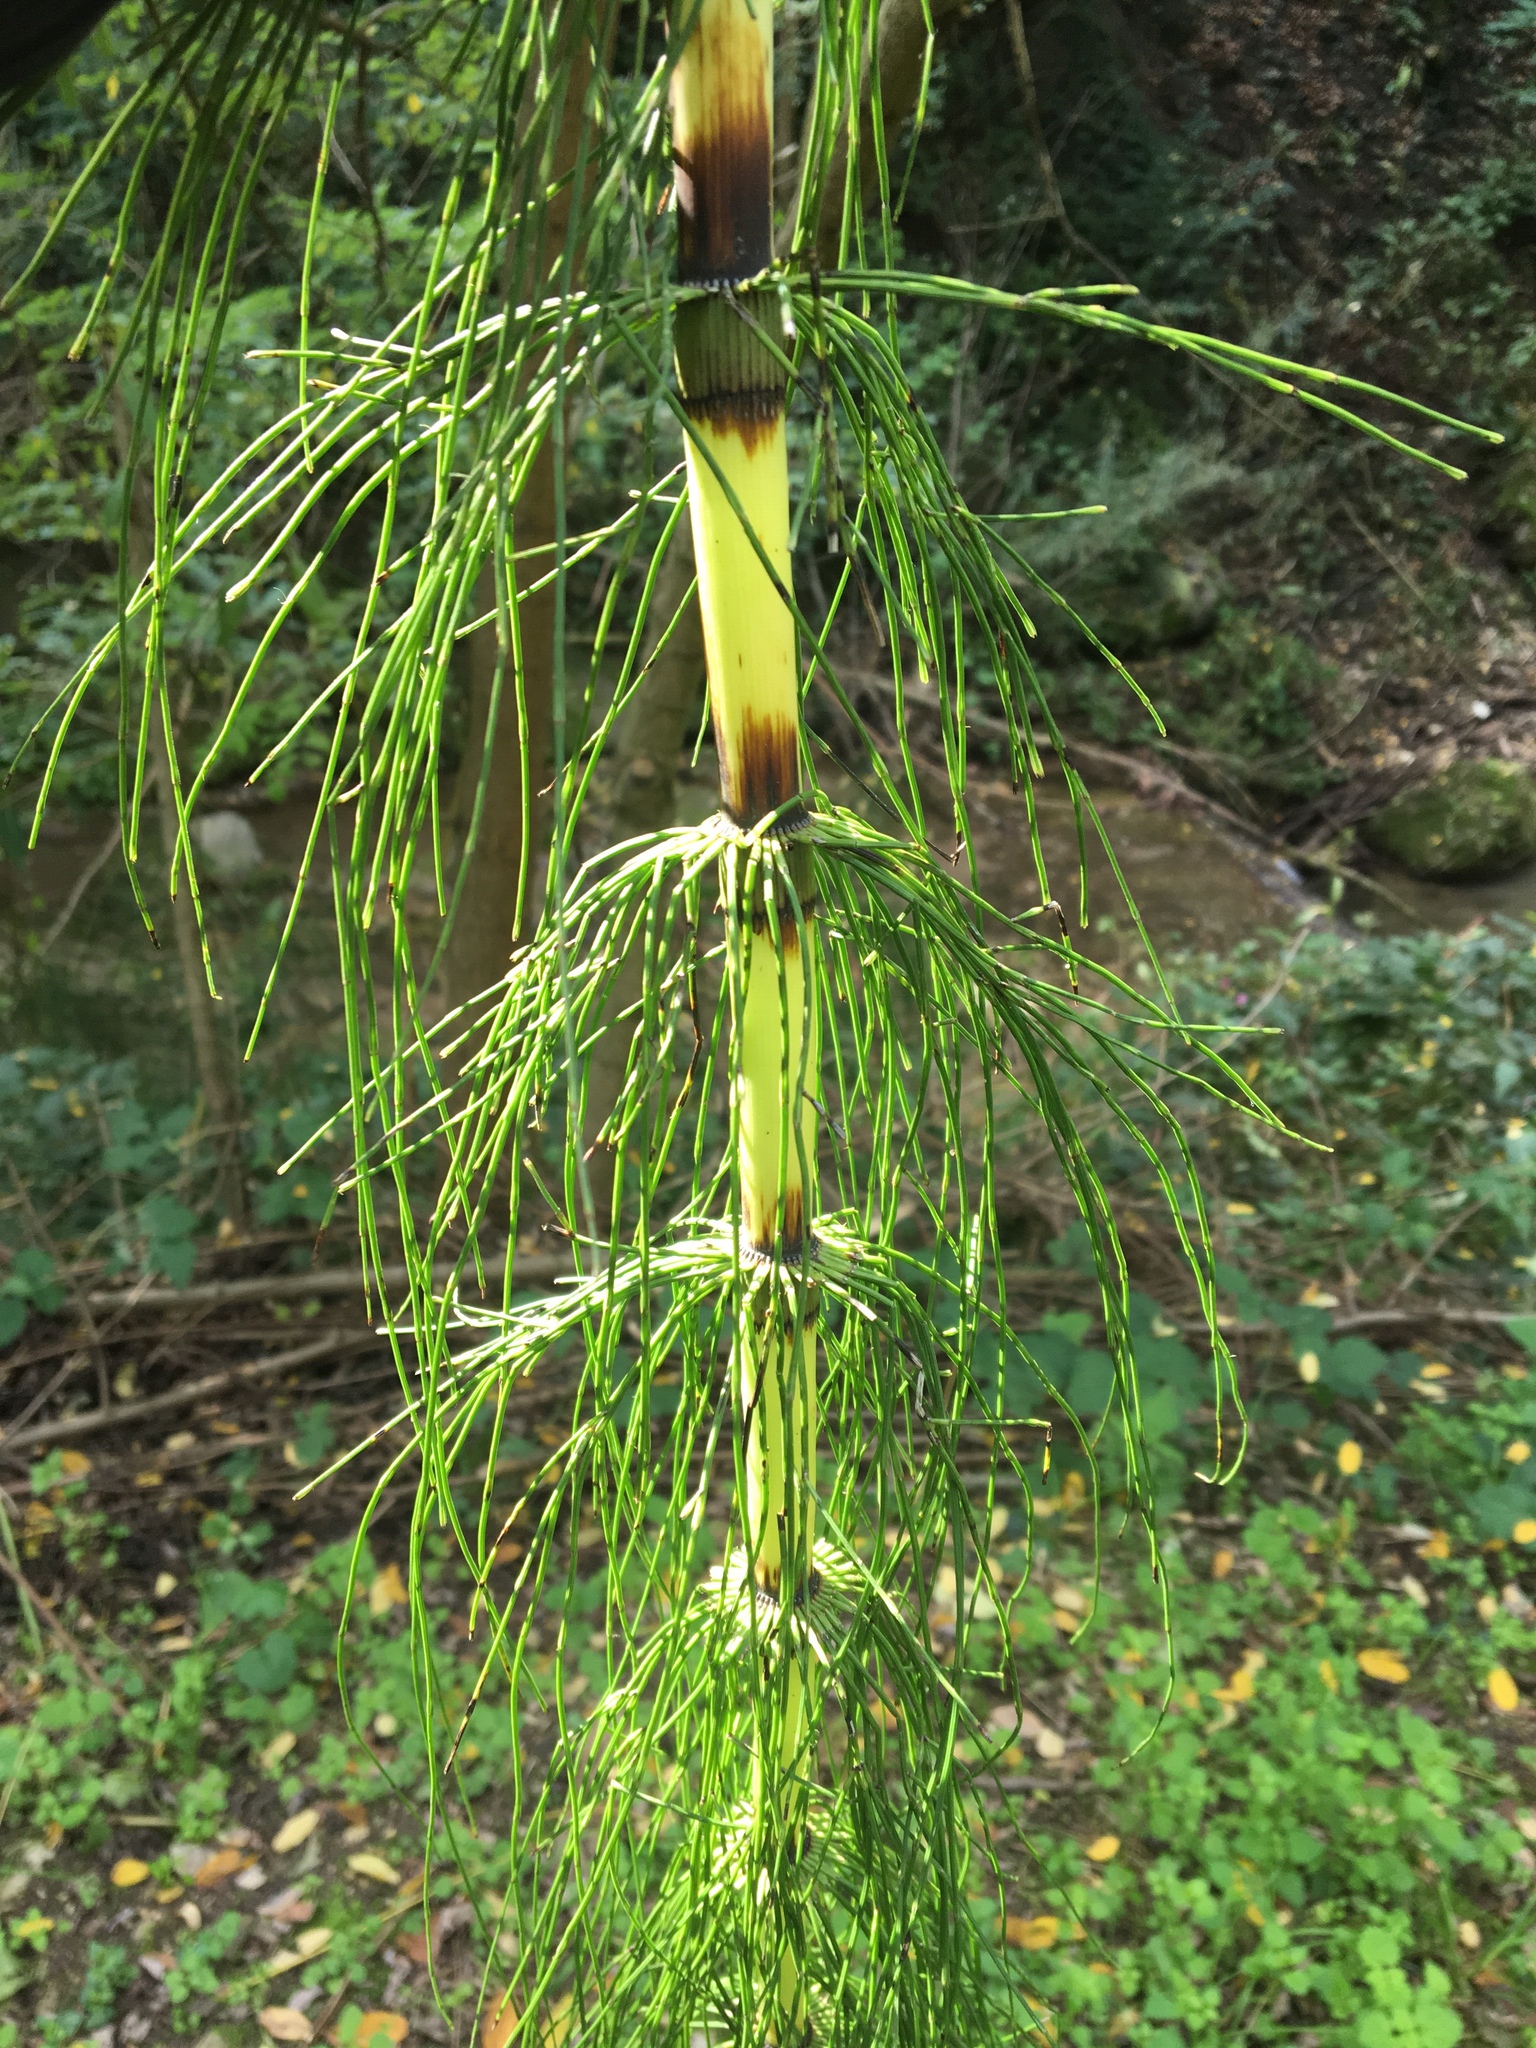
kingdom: Plantae
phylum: Tracheophyta
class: Polypodiopsida
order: Equisetales
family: Equisetaceae
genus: Equisetum
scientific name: Equisetum telmateia
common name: Great horsetail
